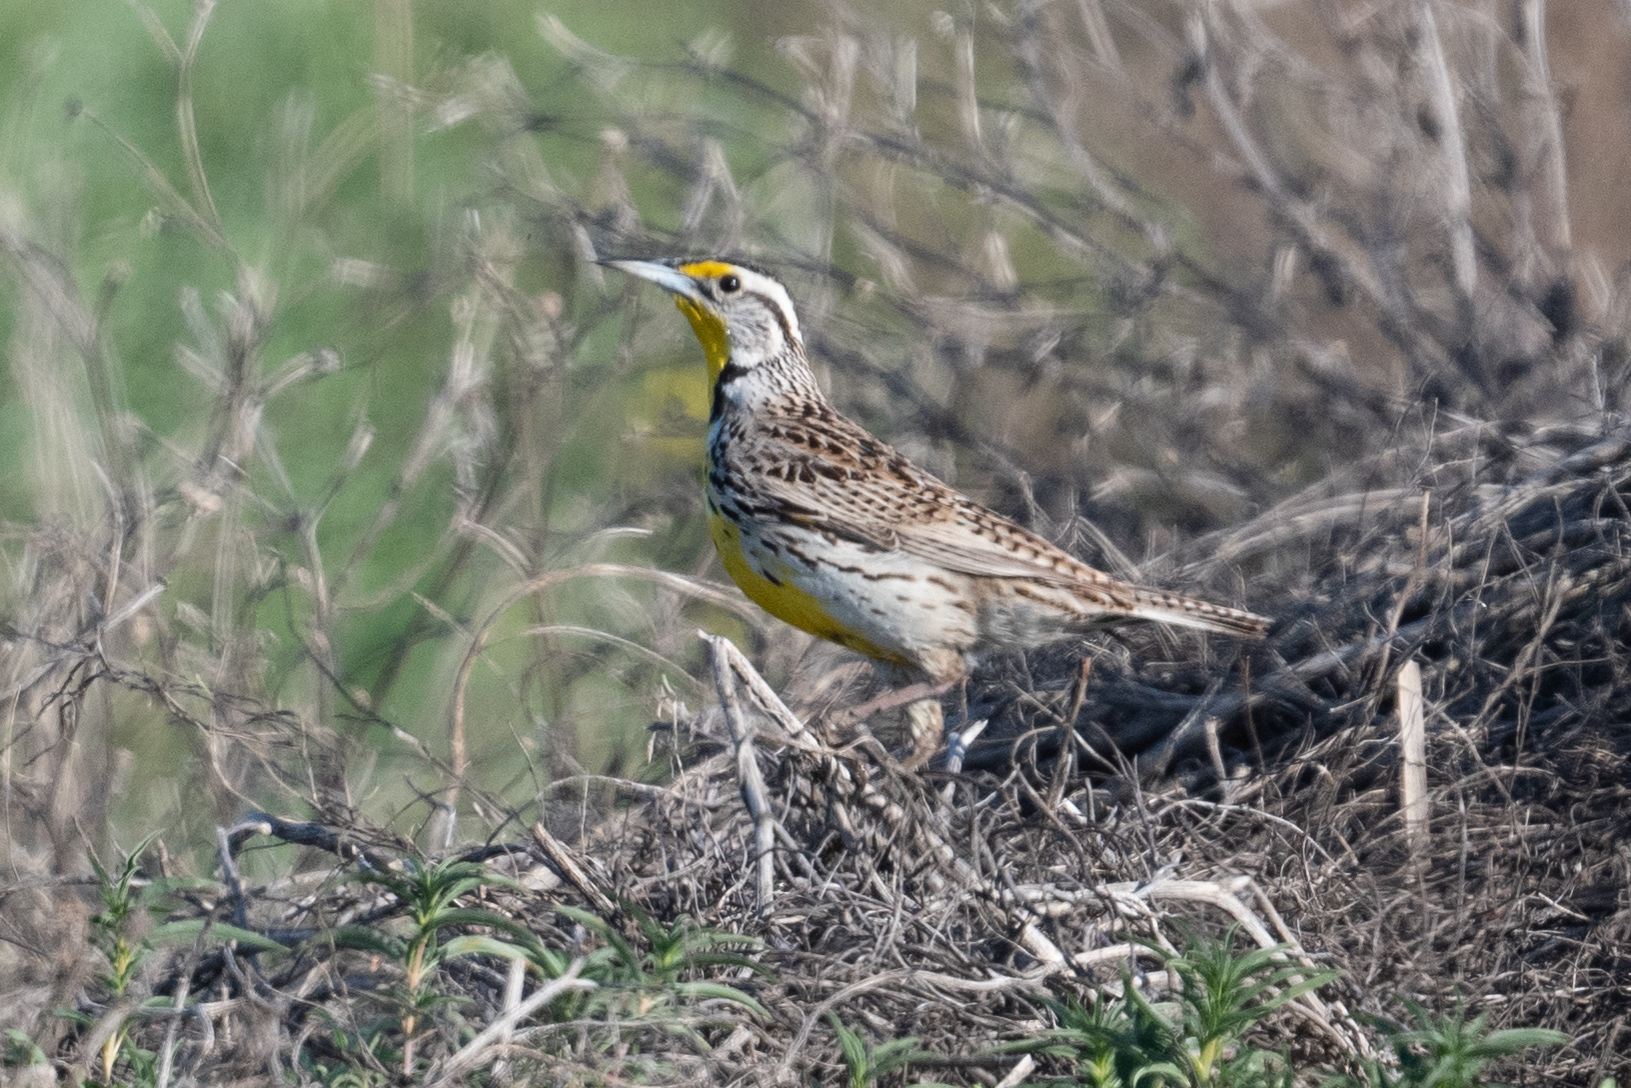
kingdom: Animalia
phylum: Chordata
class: Aves
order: Passeriformes
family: Icteridae
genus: Sturnella
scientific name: Sturnella neglecta
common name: Western meadowlark
